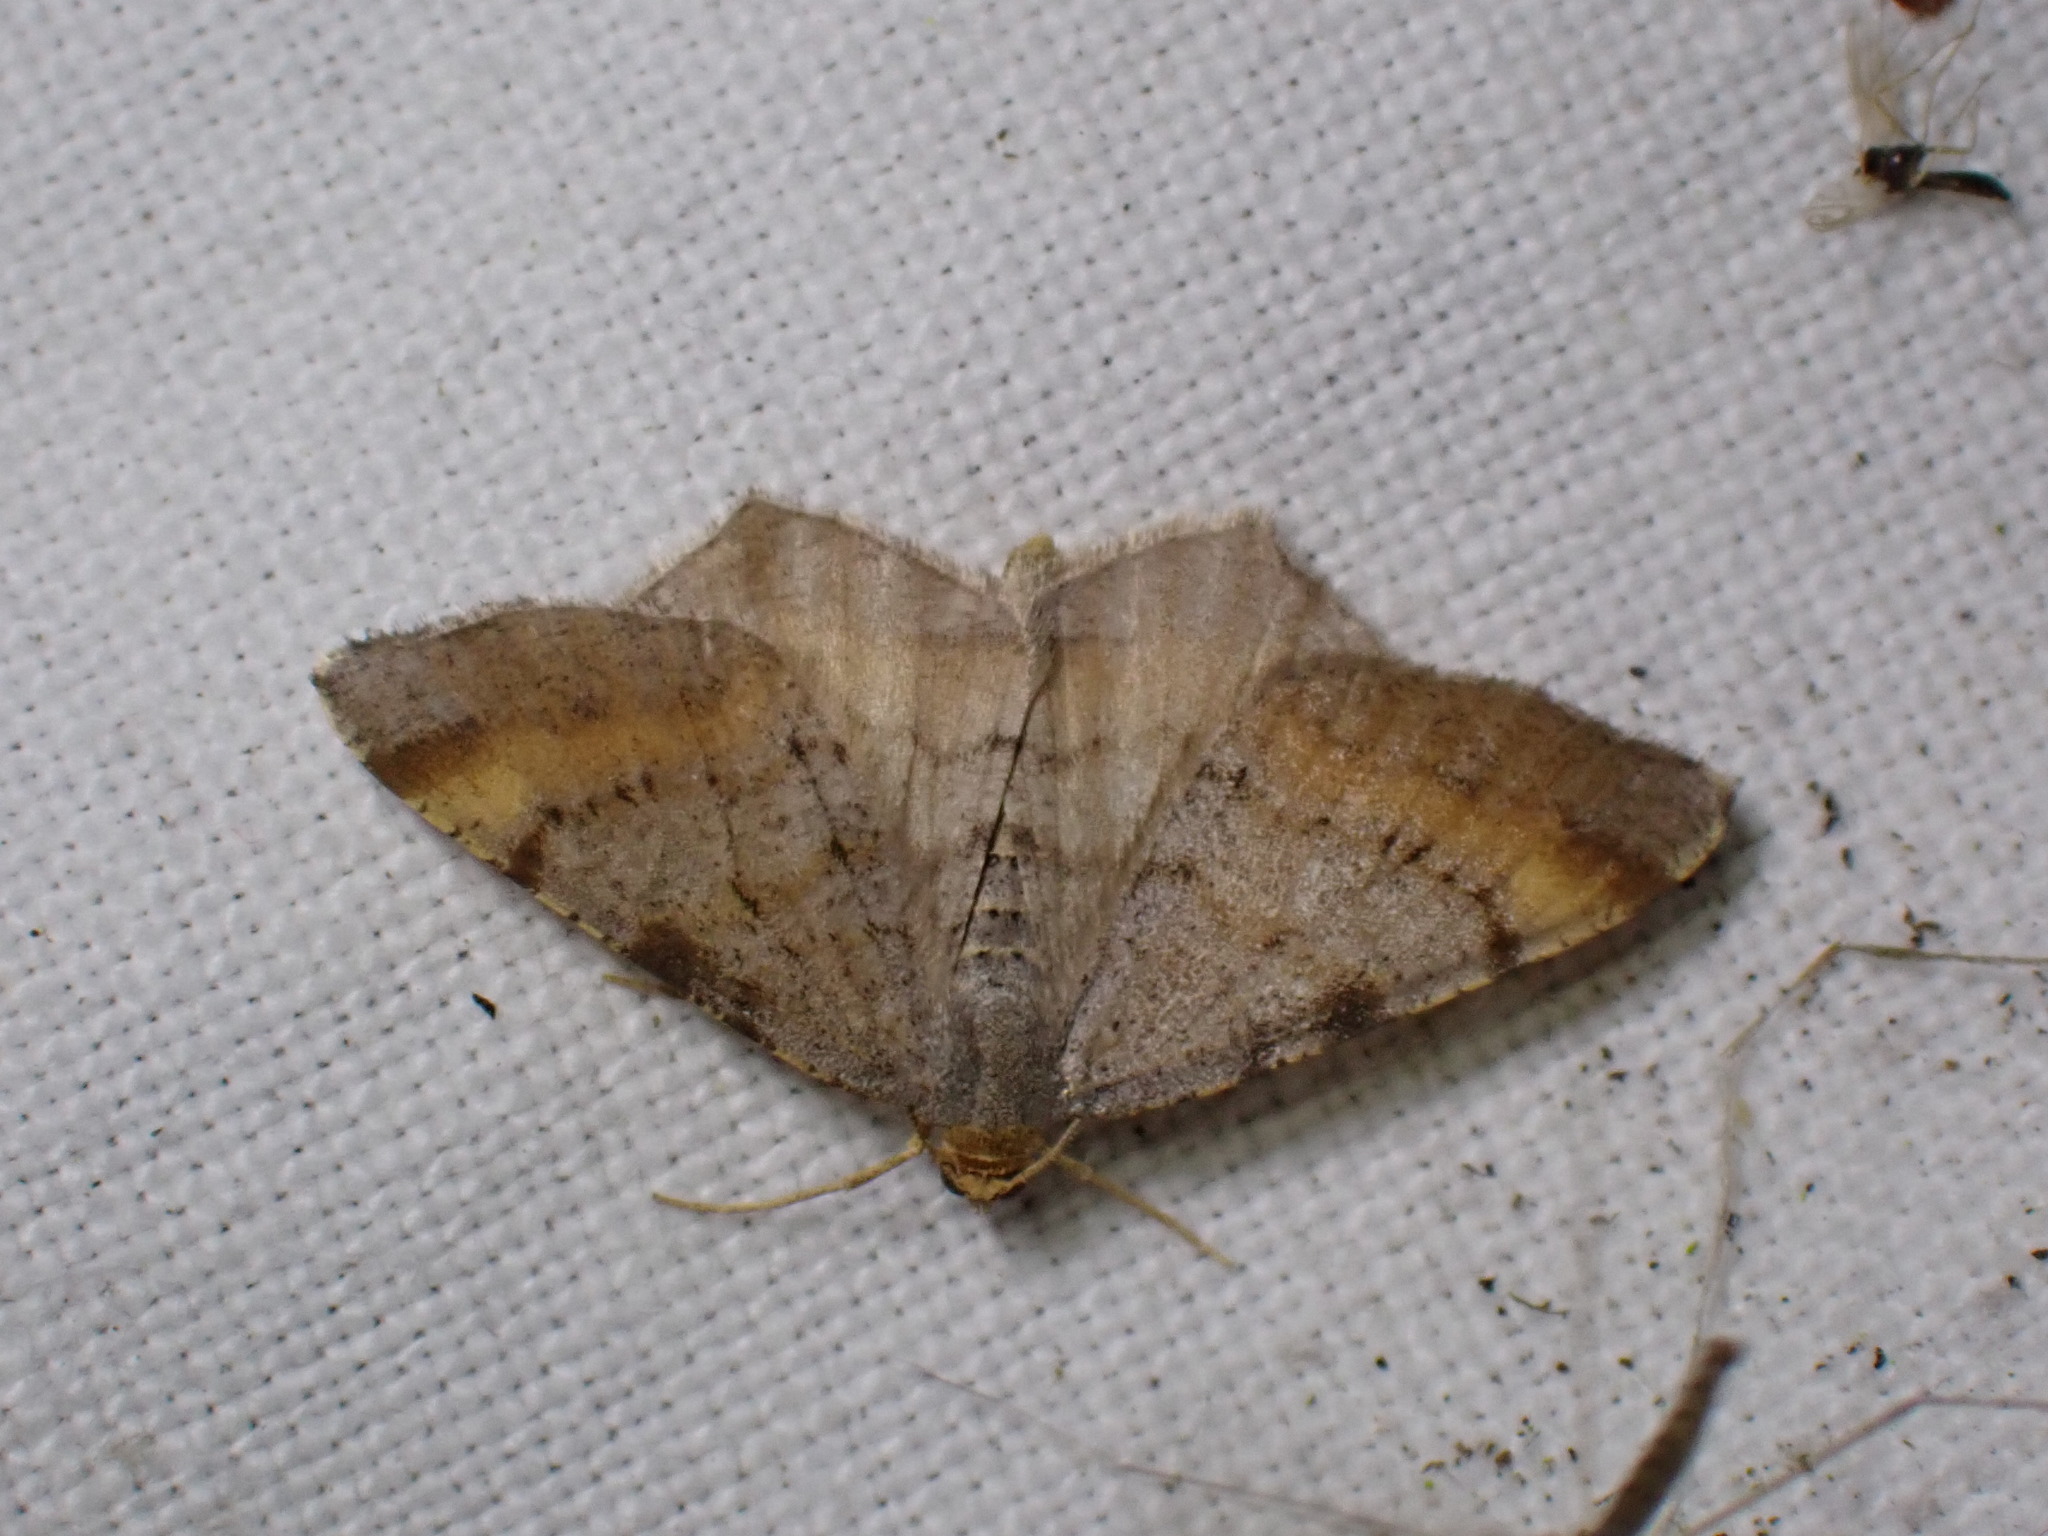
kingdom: Animalia
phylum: Arthropoda
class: Insecta
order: Lepidoptera
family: Geometridae
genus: Macaria
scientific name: Macaria liturata
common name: Tawny-barred angle
